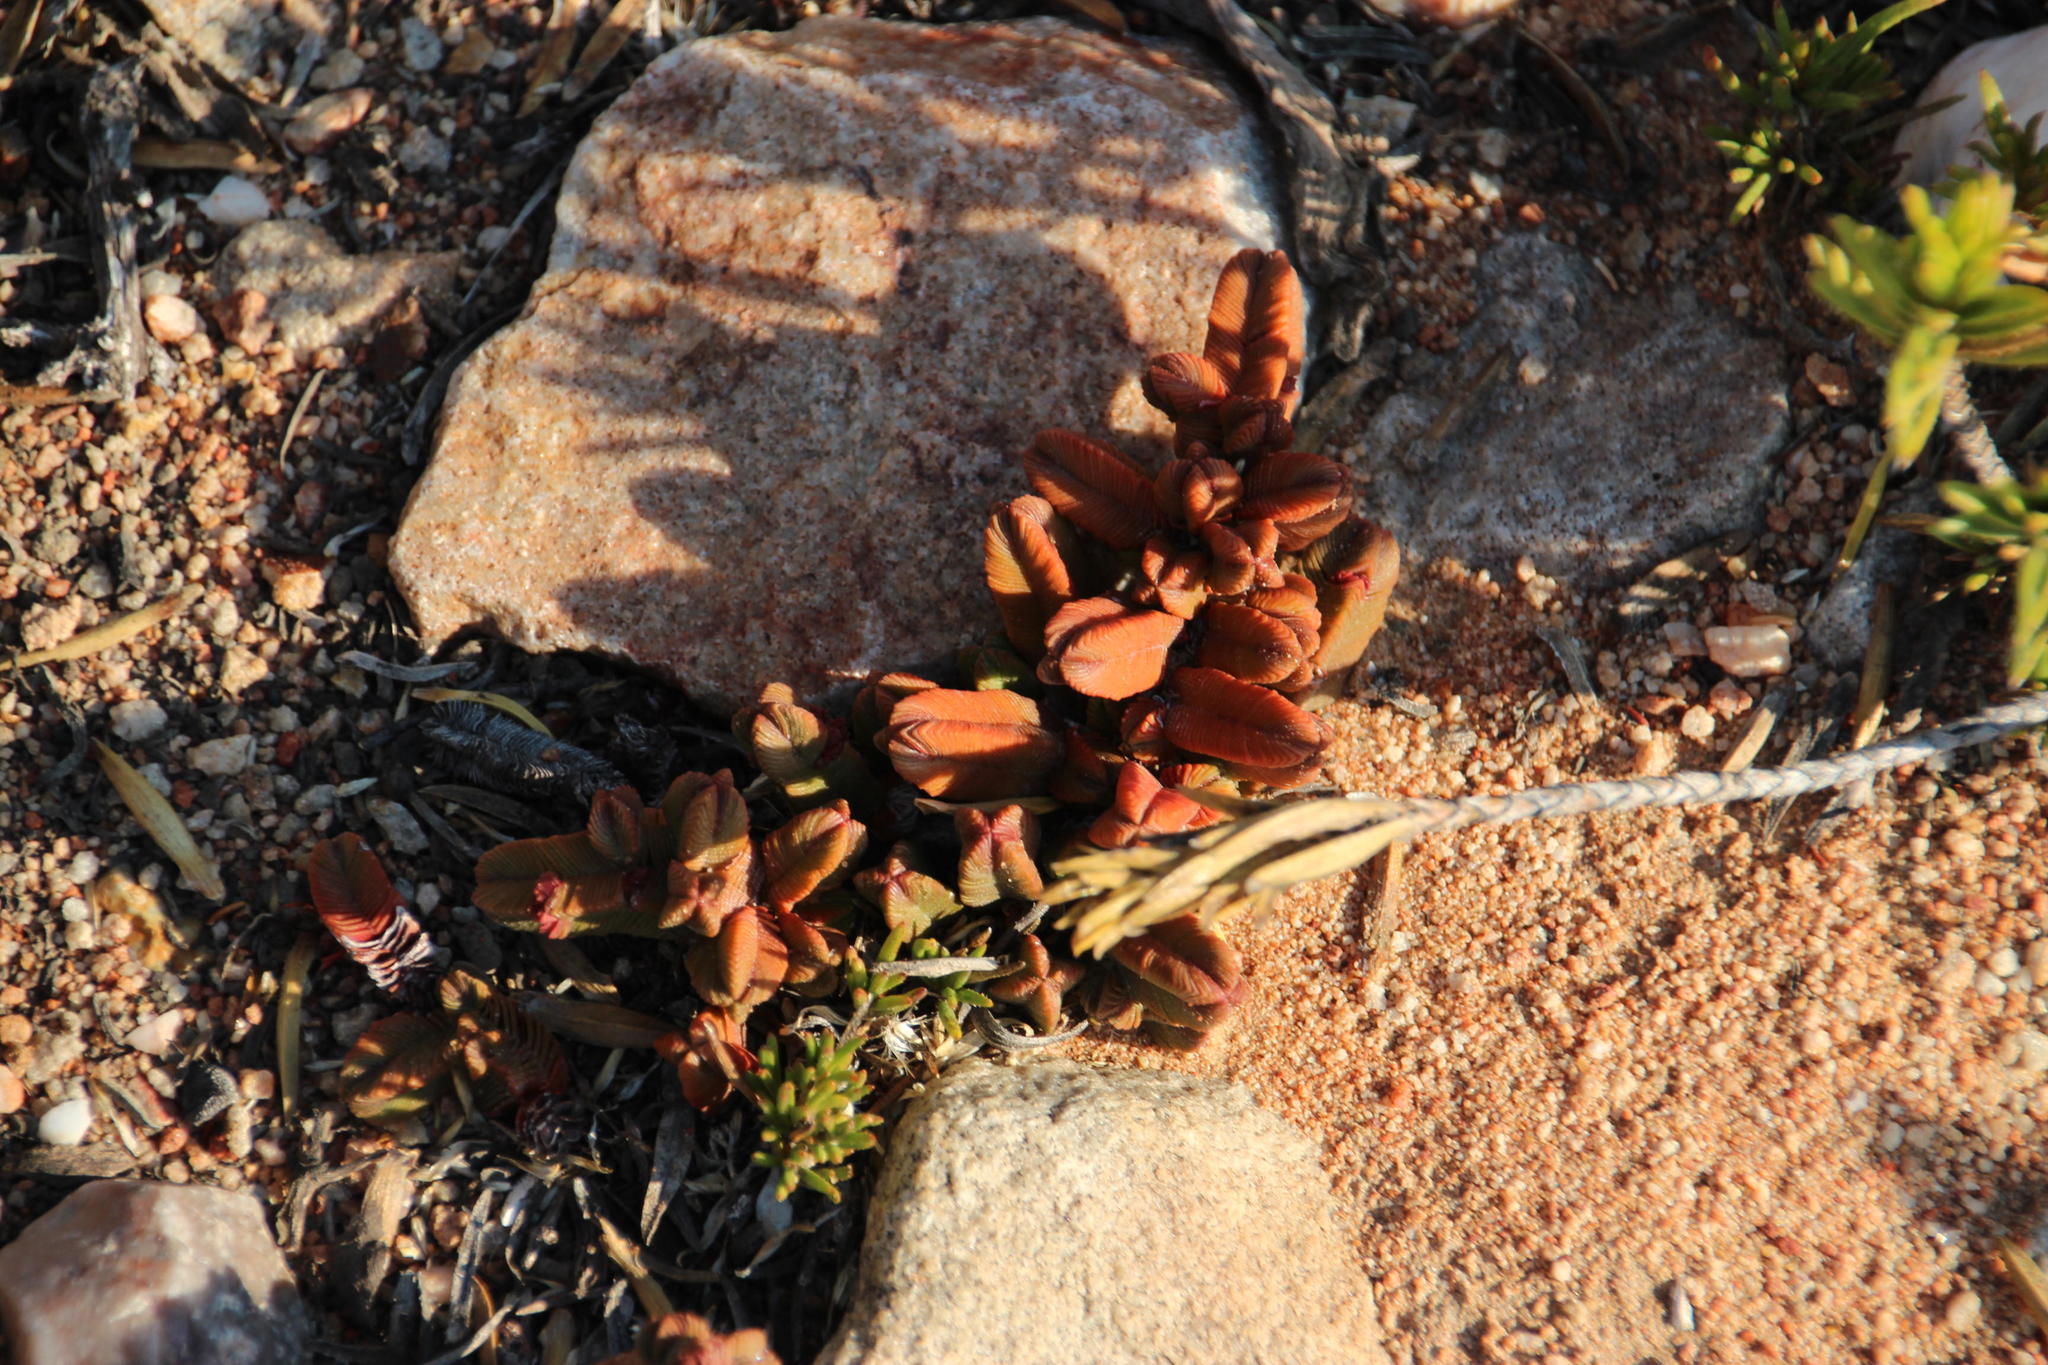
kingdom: Plantae
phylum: Tracheophyta
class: Magnoliopsida
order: Saxifragales
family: Crassulaceae
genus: Crassula
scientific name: Crassula pyramidalis
